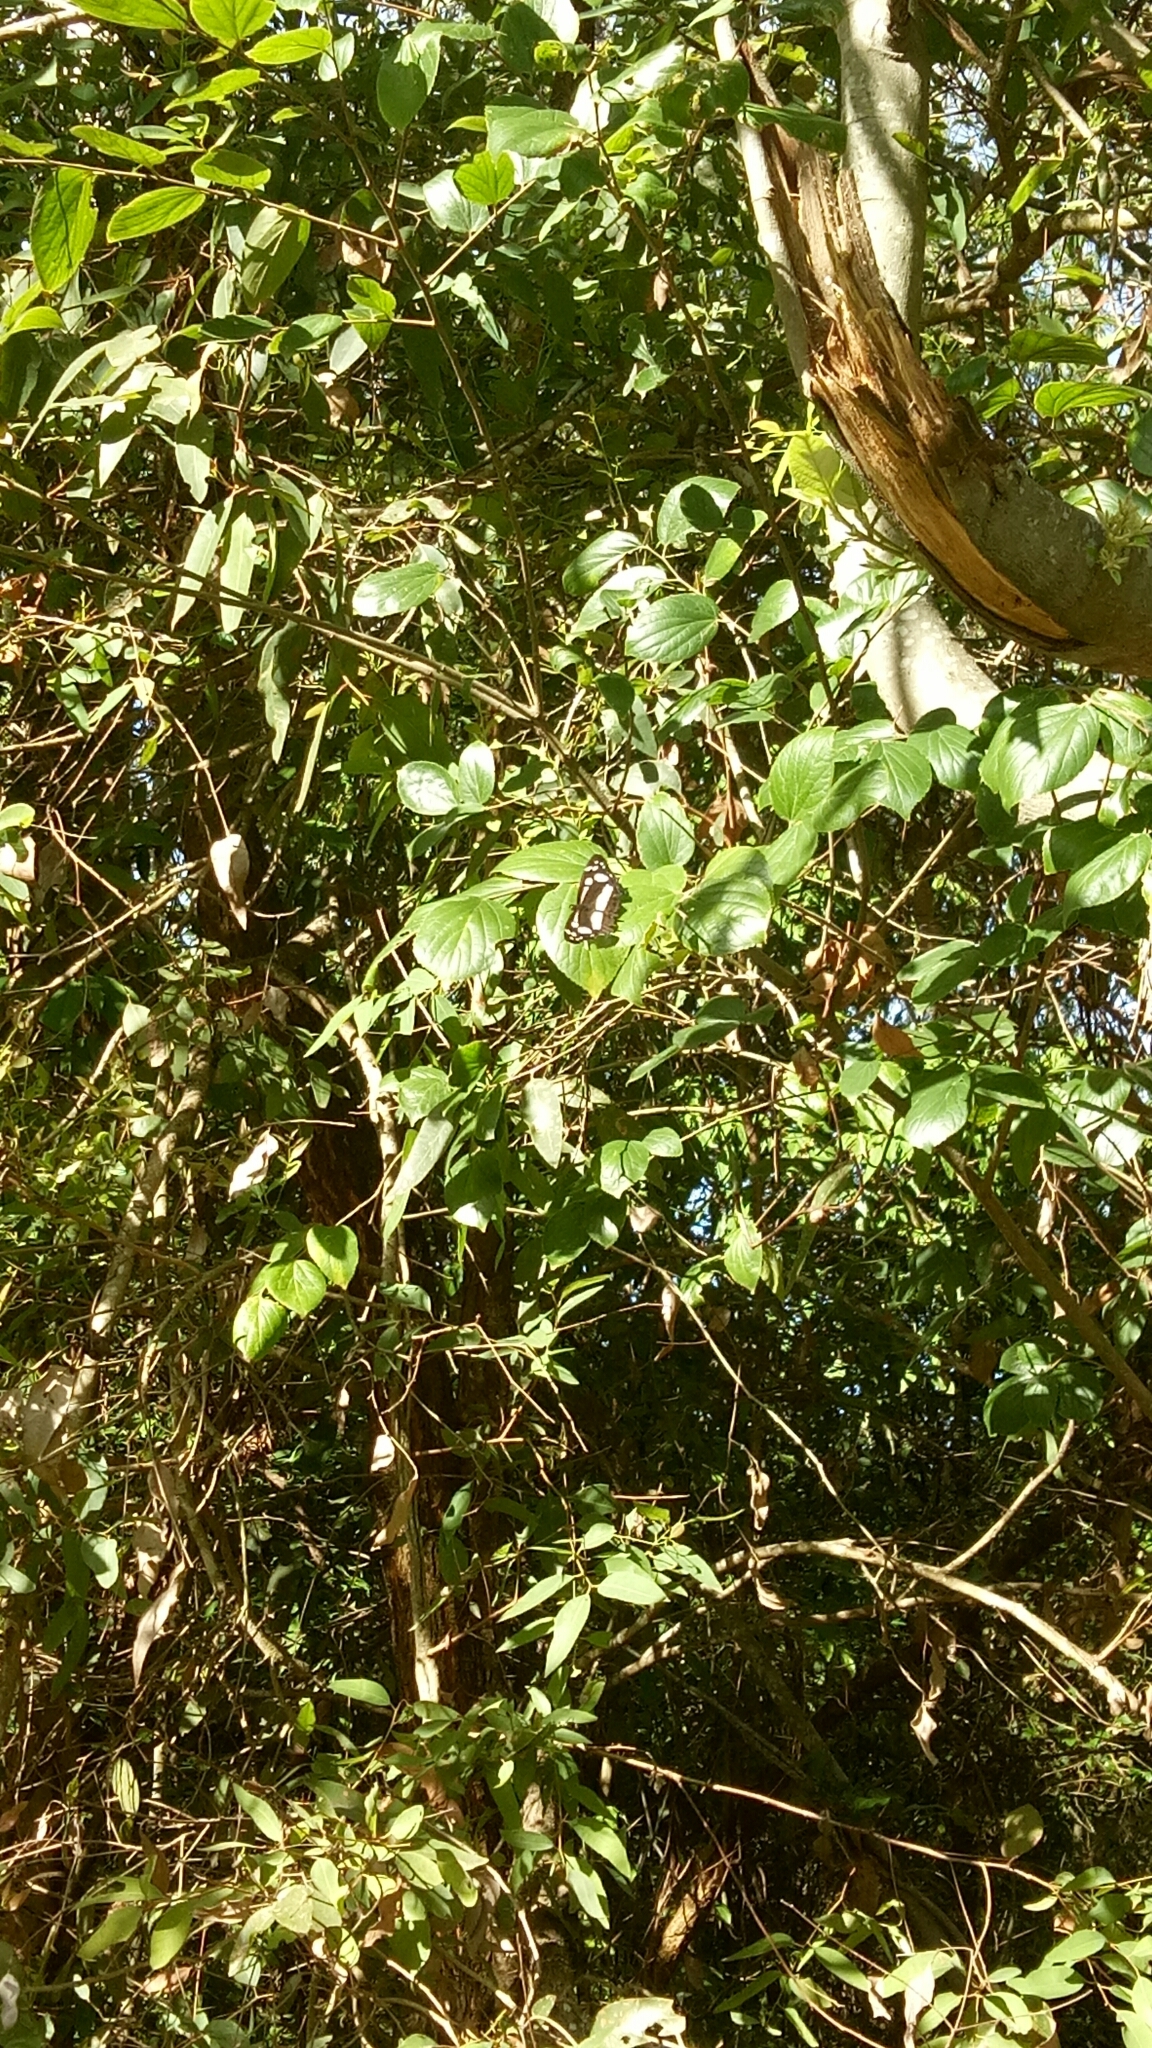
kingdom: Animalia
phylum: Arthropoda
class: Insecta
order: Lepidoptera
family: Nymphalidae
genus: Phaedyma
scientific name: Phaedyma shepherdi
